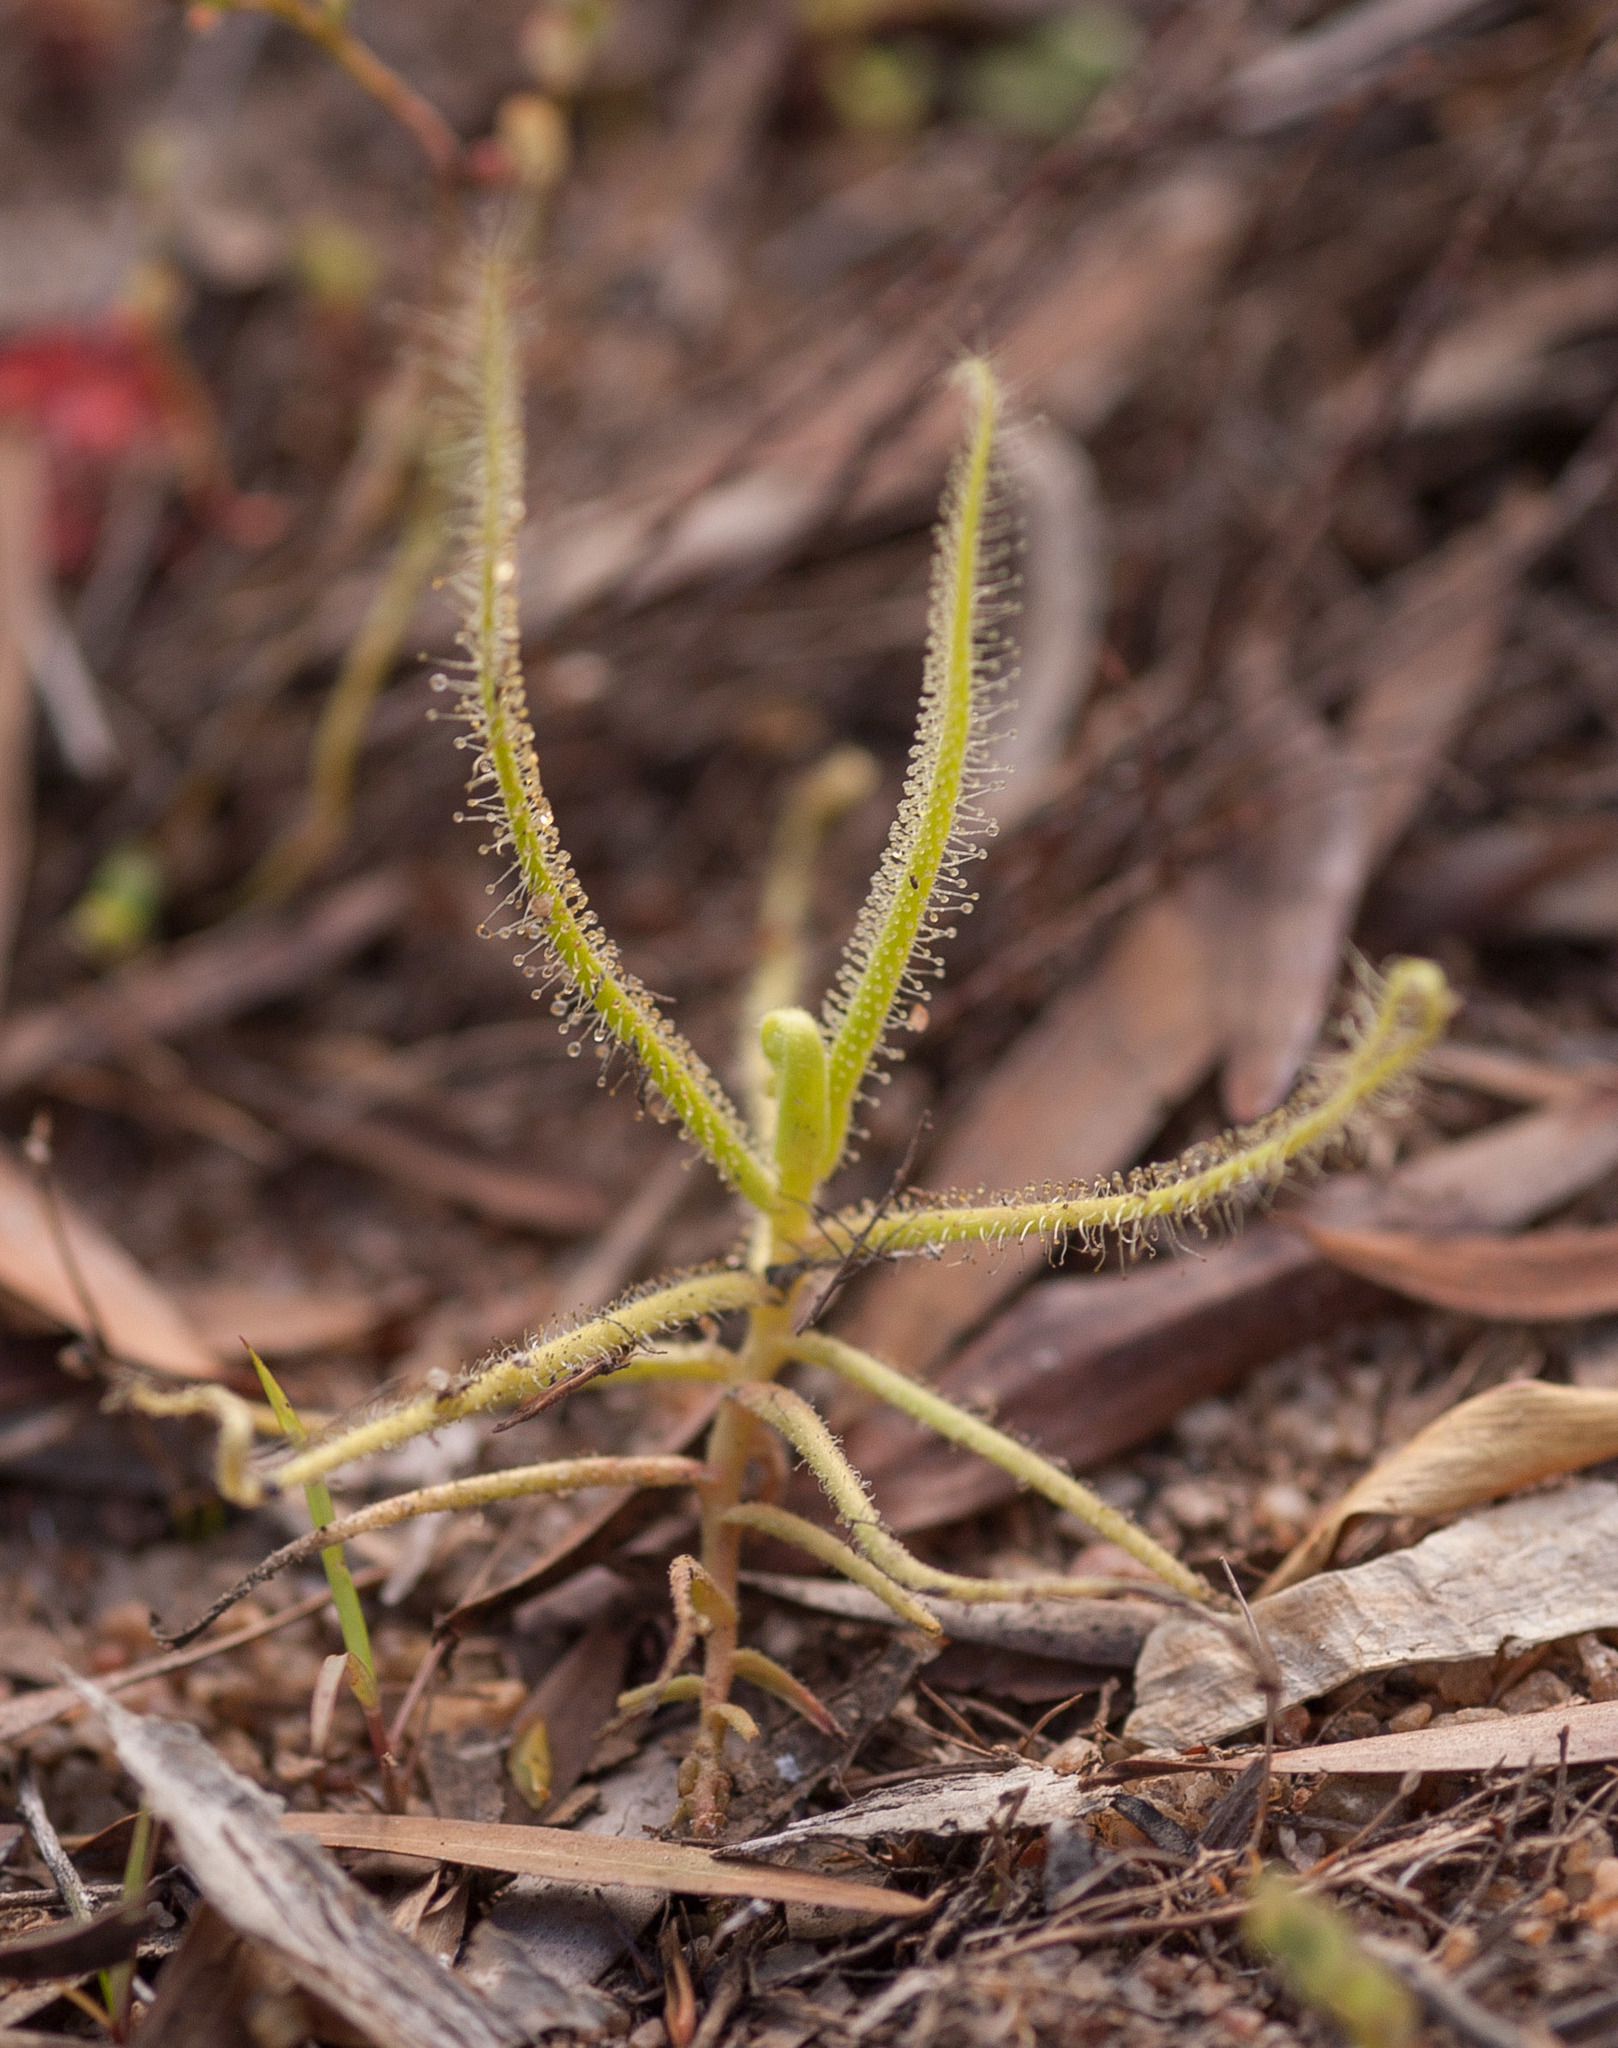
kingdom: Plantae
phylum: Tracheophyta
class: Magnoliopsida
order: Caryophyllales
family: Droseraceae
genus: Drosera
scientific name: Drosera finlaysoniana
